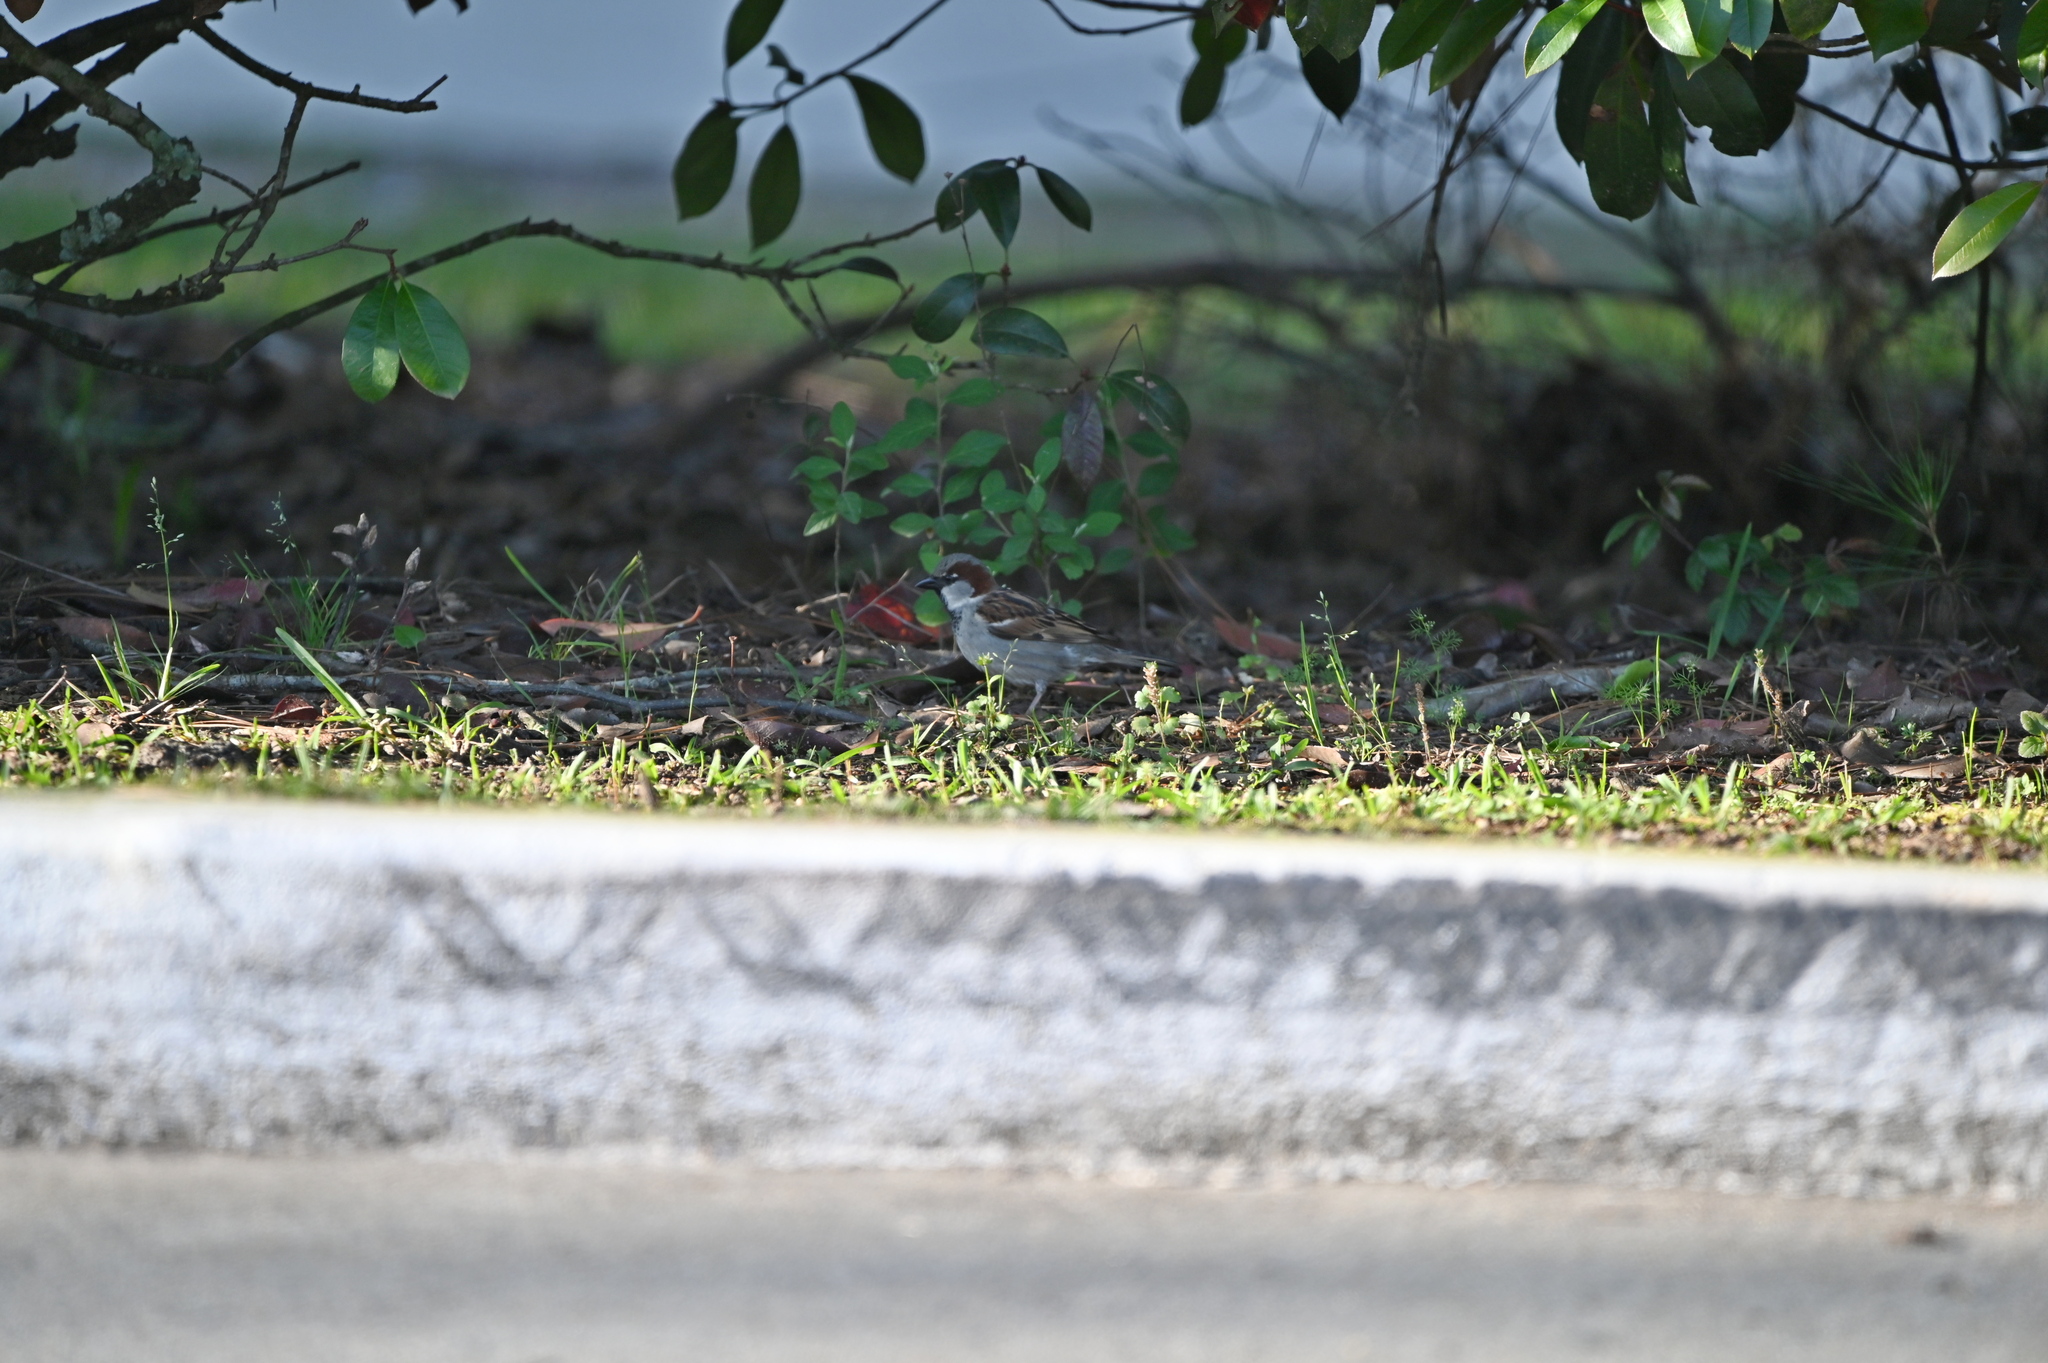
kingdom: Animalia
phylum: Chordata
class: Aves
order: Passeriformes
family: Passeridae
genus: Passer
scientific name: Passer domesticus
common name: House sparrow
